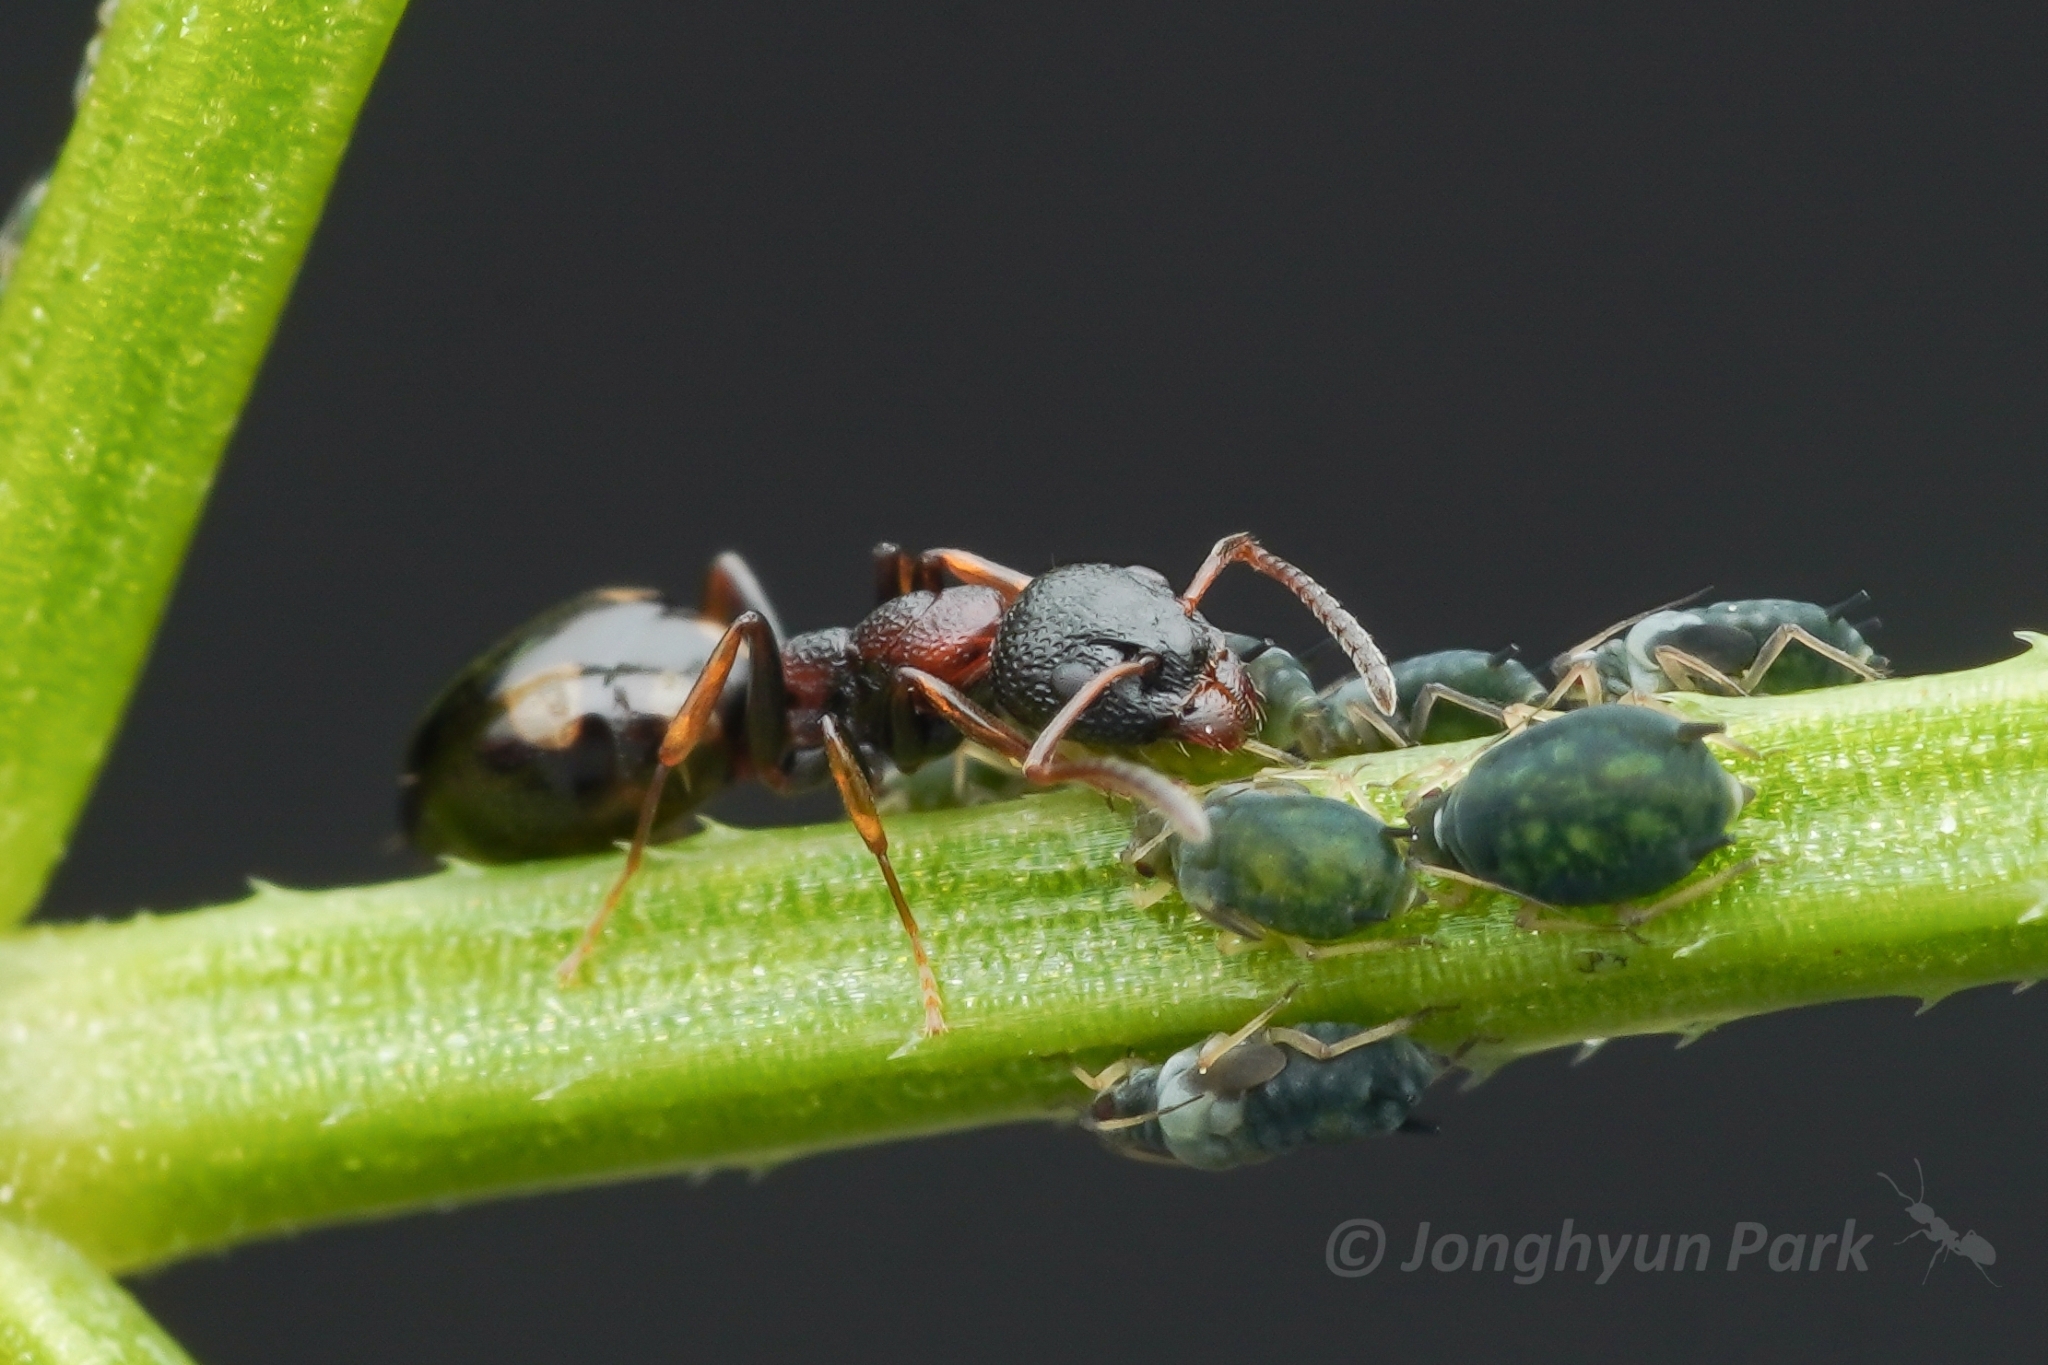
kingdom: Animalia
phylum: Arthropoda
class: Insecta
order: Hymenoptera
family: Formicidae
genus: Dolichoderus
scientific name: Dolichoderus sibiricus
